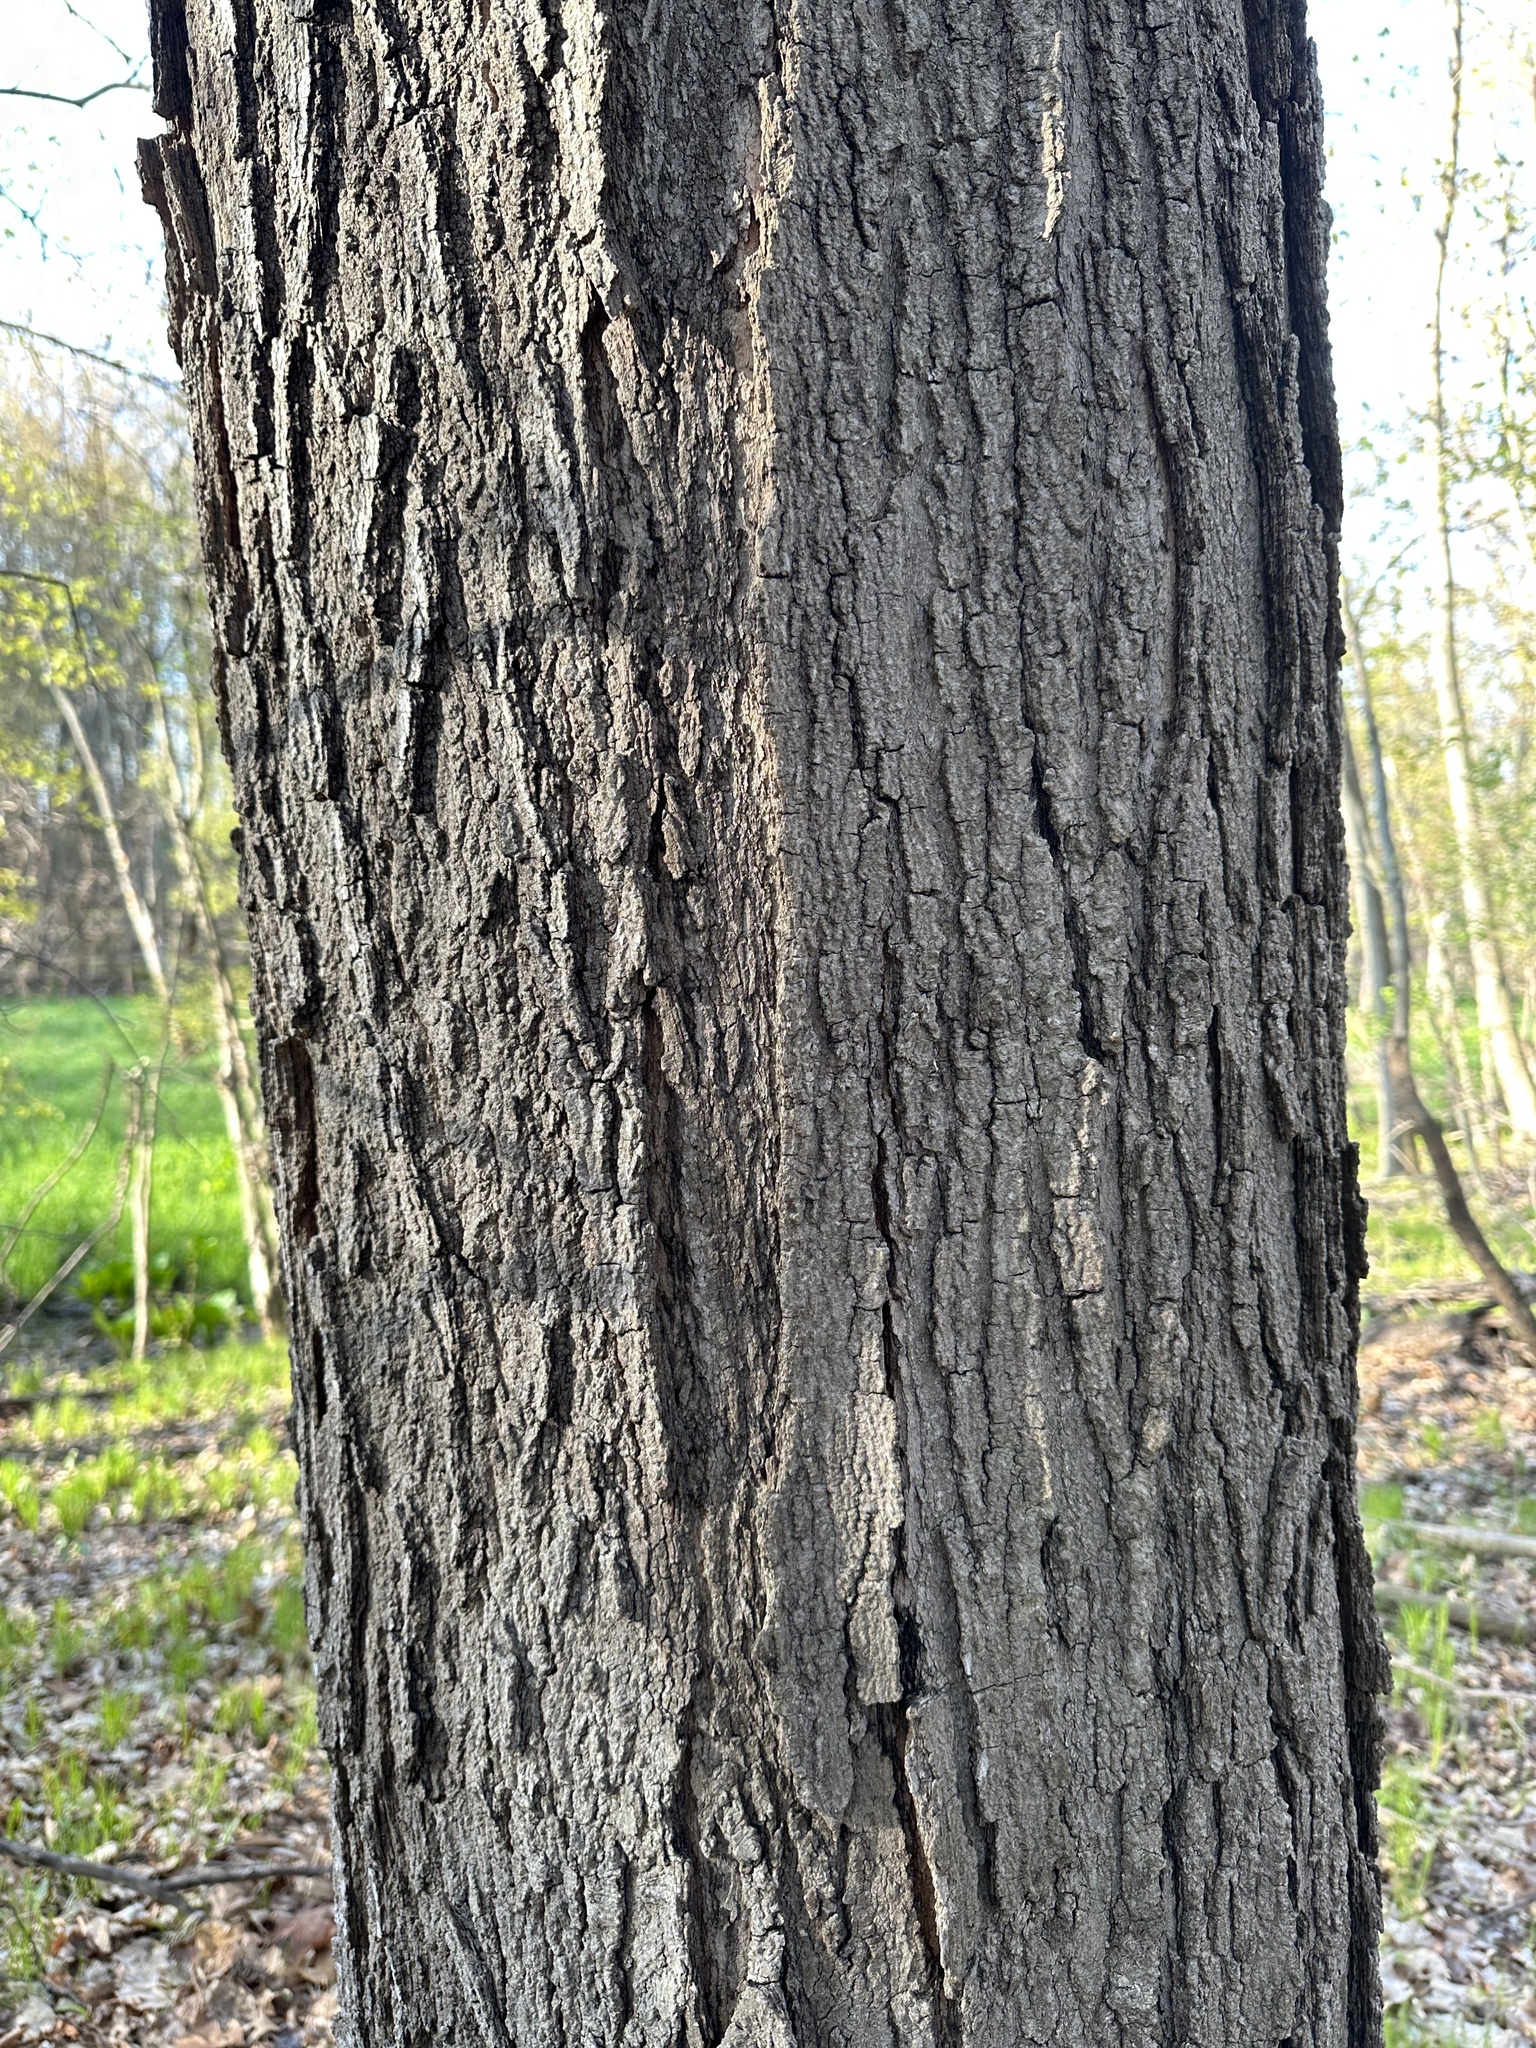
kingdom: Plantae
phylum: Tracheophyta
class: Magnoliopsida
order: Sapindales
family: Sapindaceae
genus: Acer
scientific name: Acer saccharum
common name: Sugar maple
